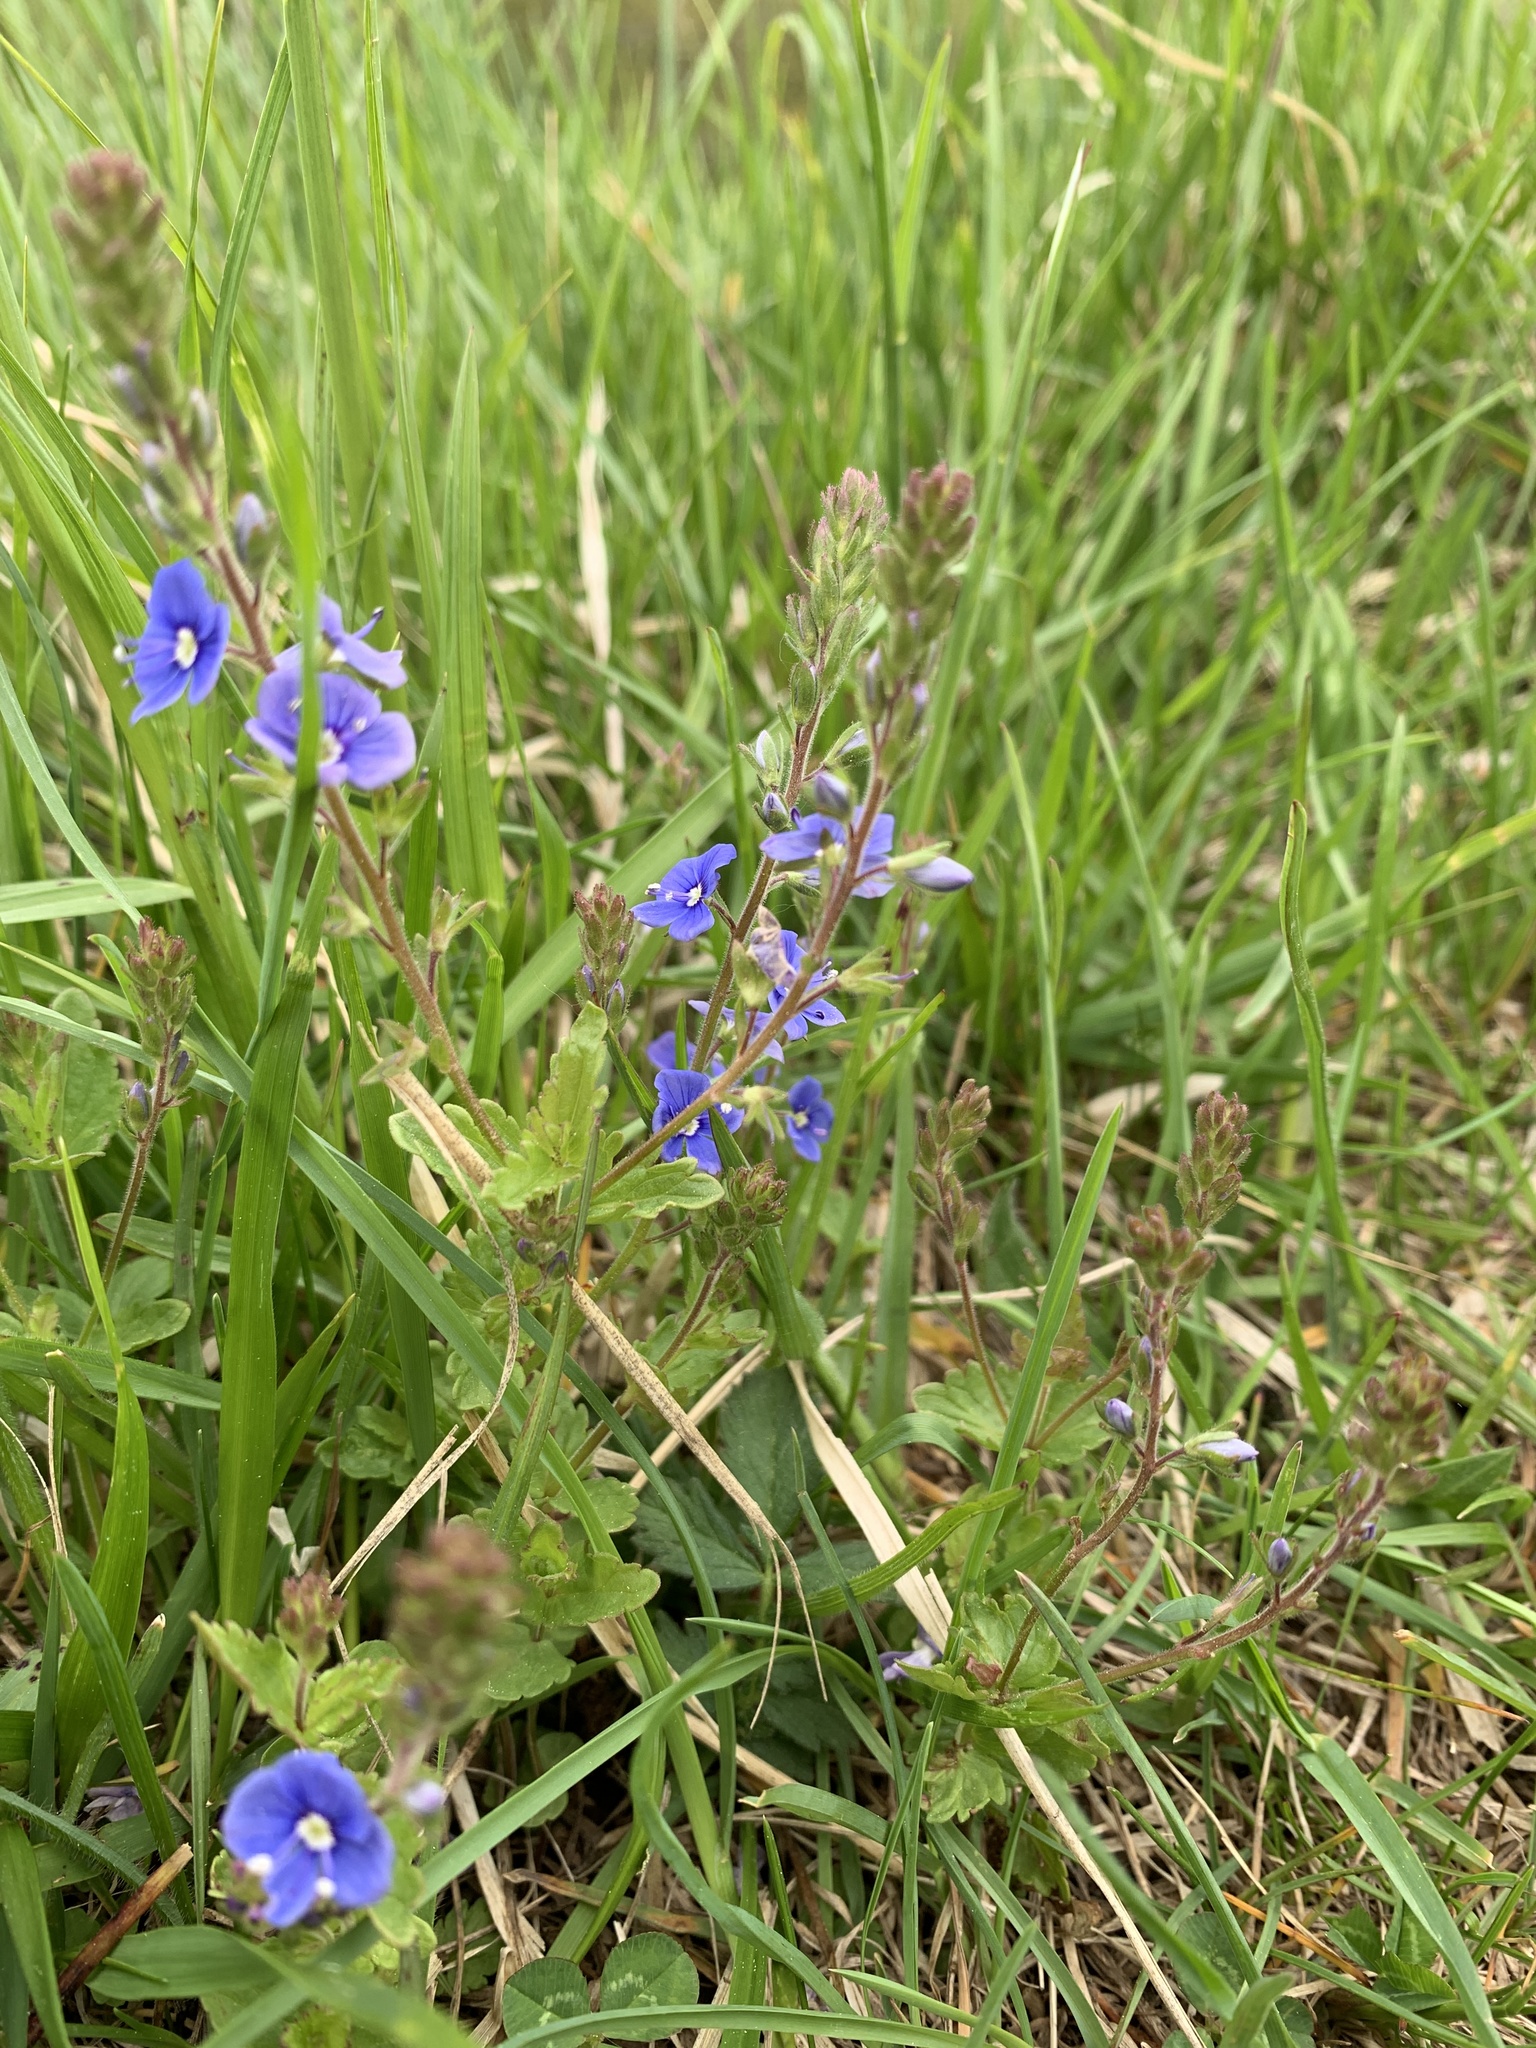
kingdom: Plantae
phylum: Tracheophyta
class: Magnoliopsida
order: Lamiales
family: Plantaginaceae
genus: Veronica
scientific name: Veronica chamaedrys
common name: Germander speedwell
